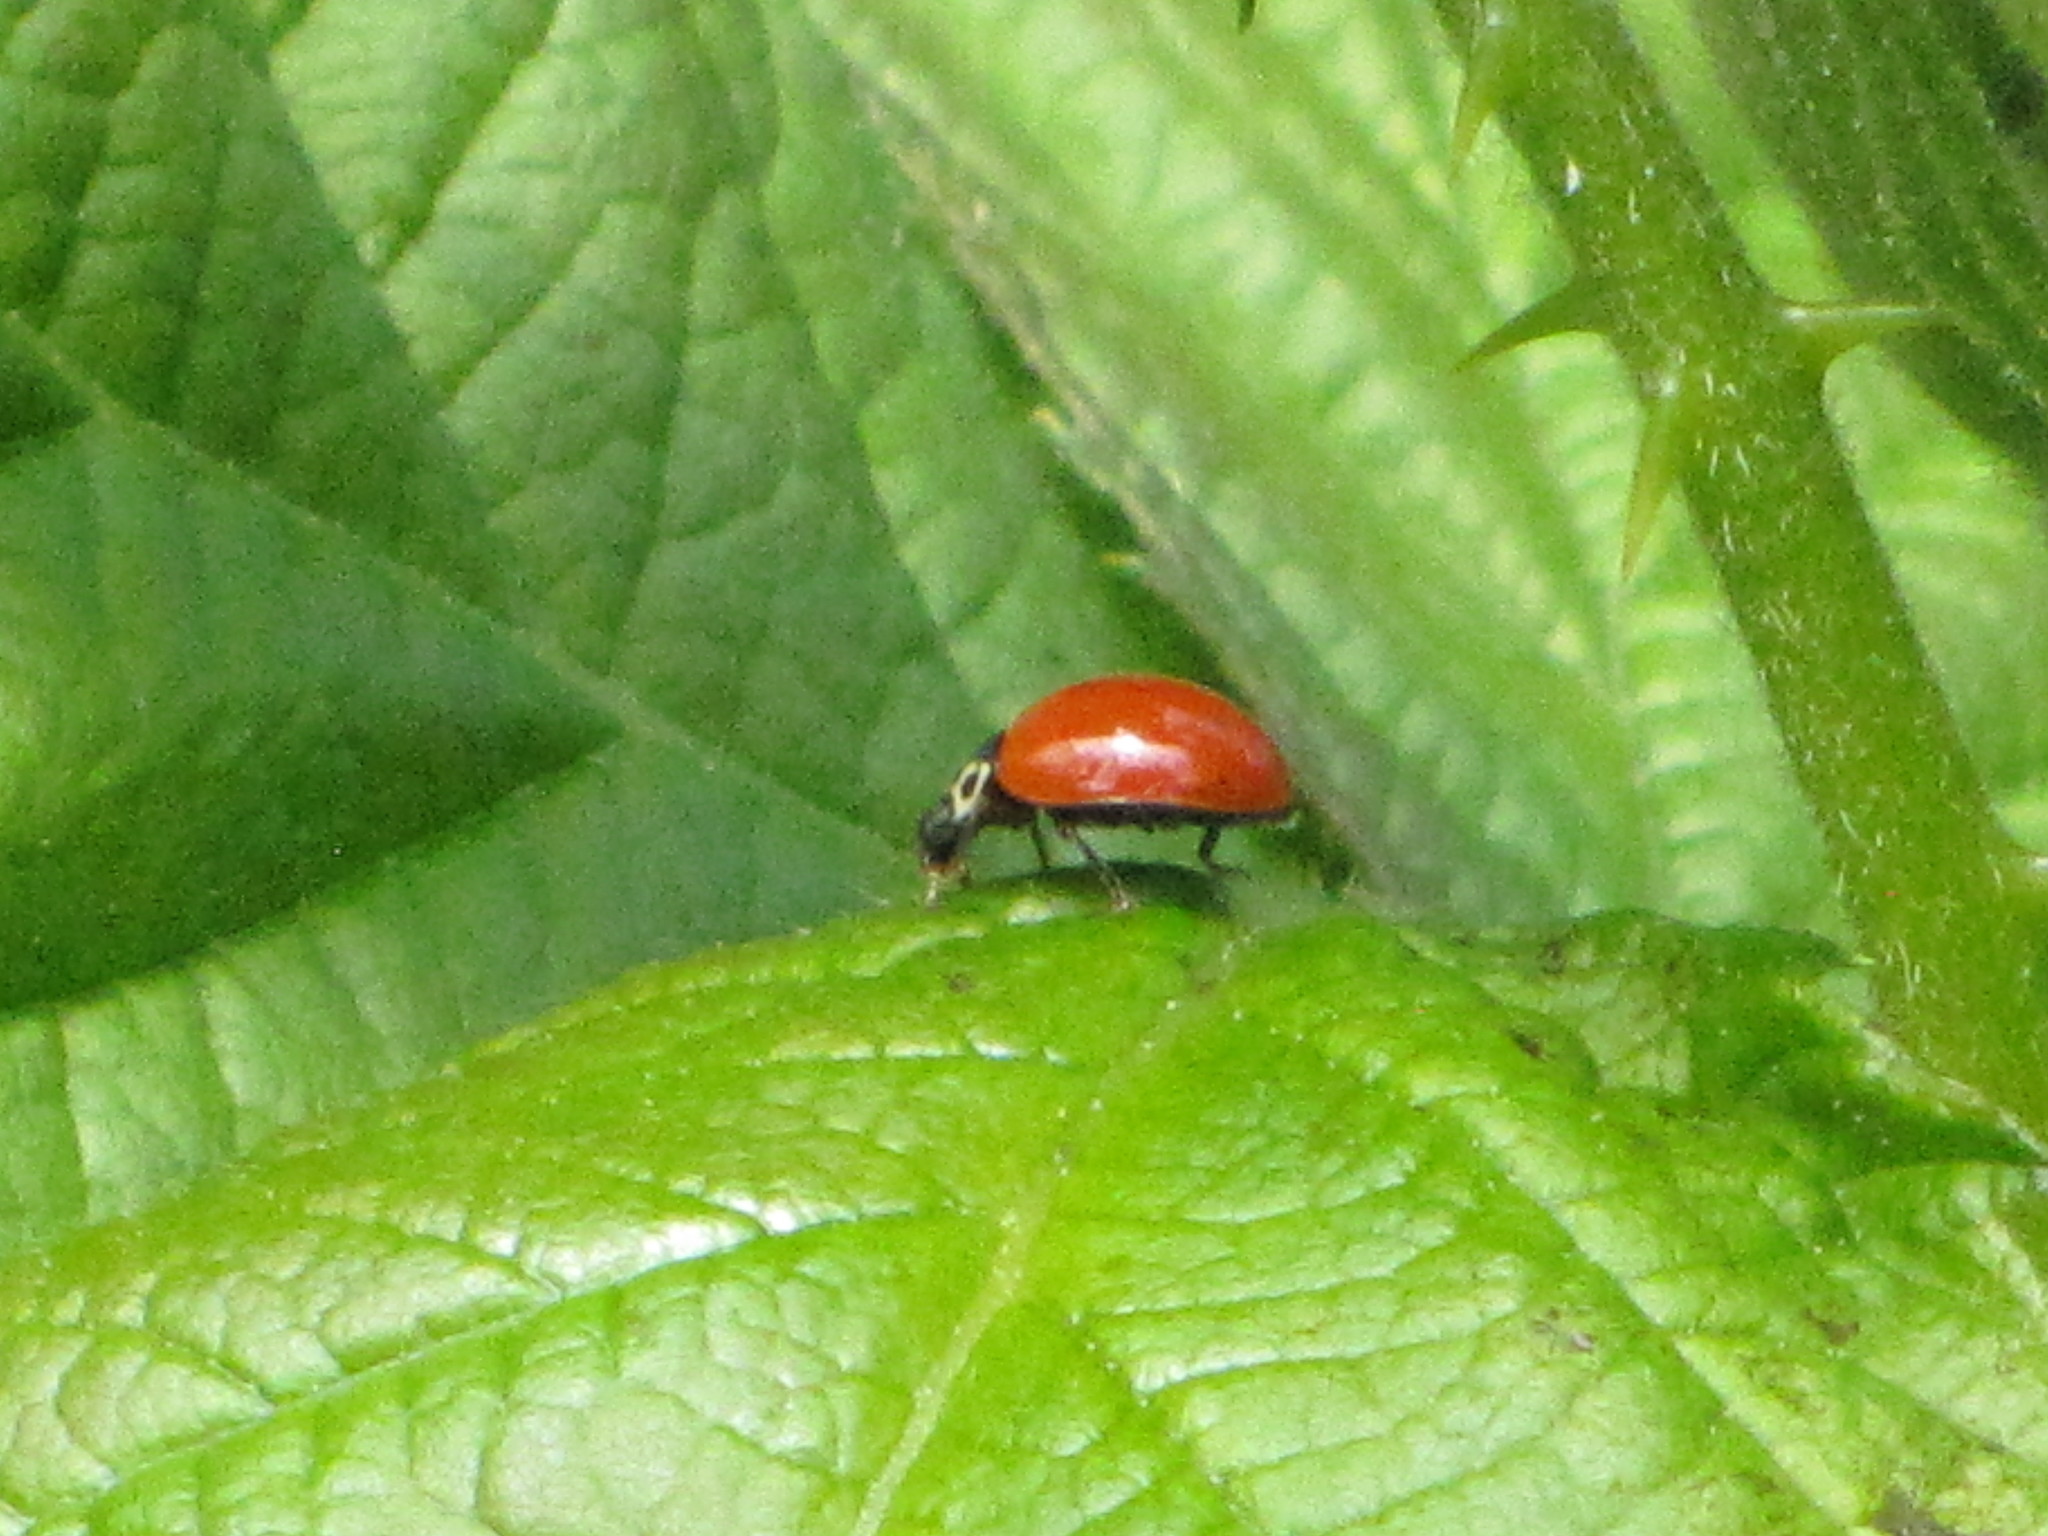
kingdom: Animalia
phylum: Arthropoda
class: Insecta
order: Coleoptera
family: Coccinellidae
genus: Cycloneda
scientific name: Cycloneda polita
